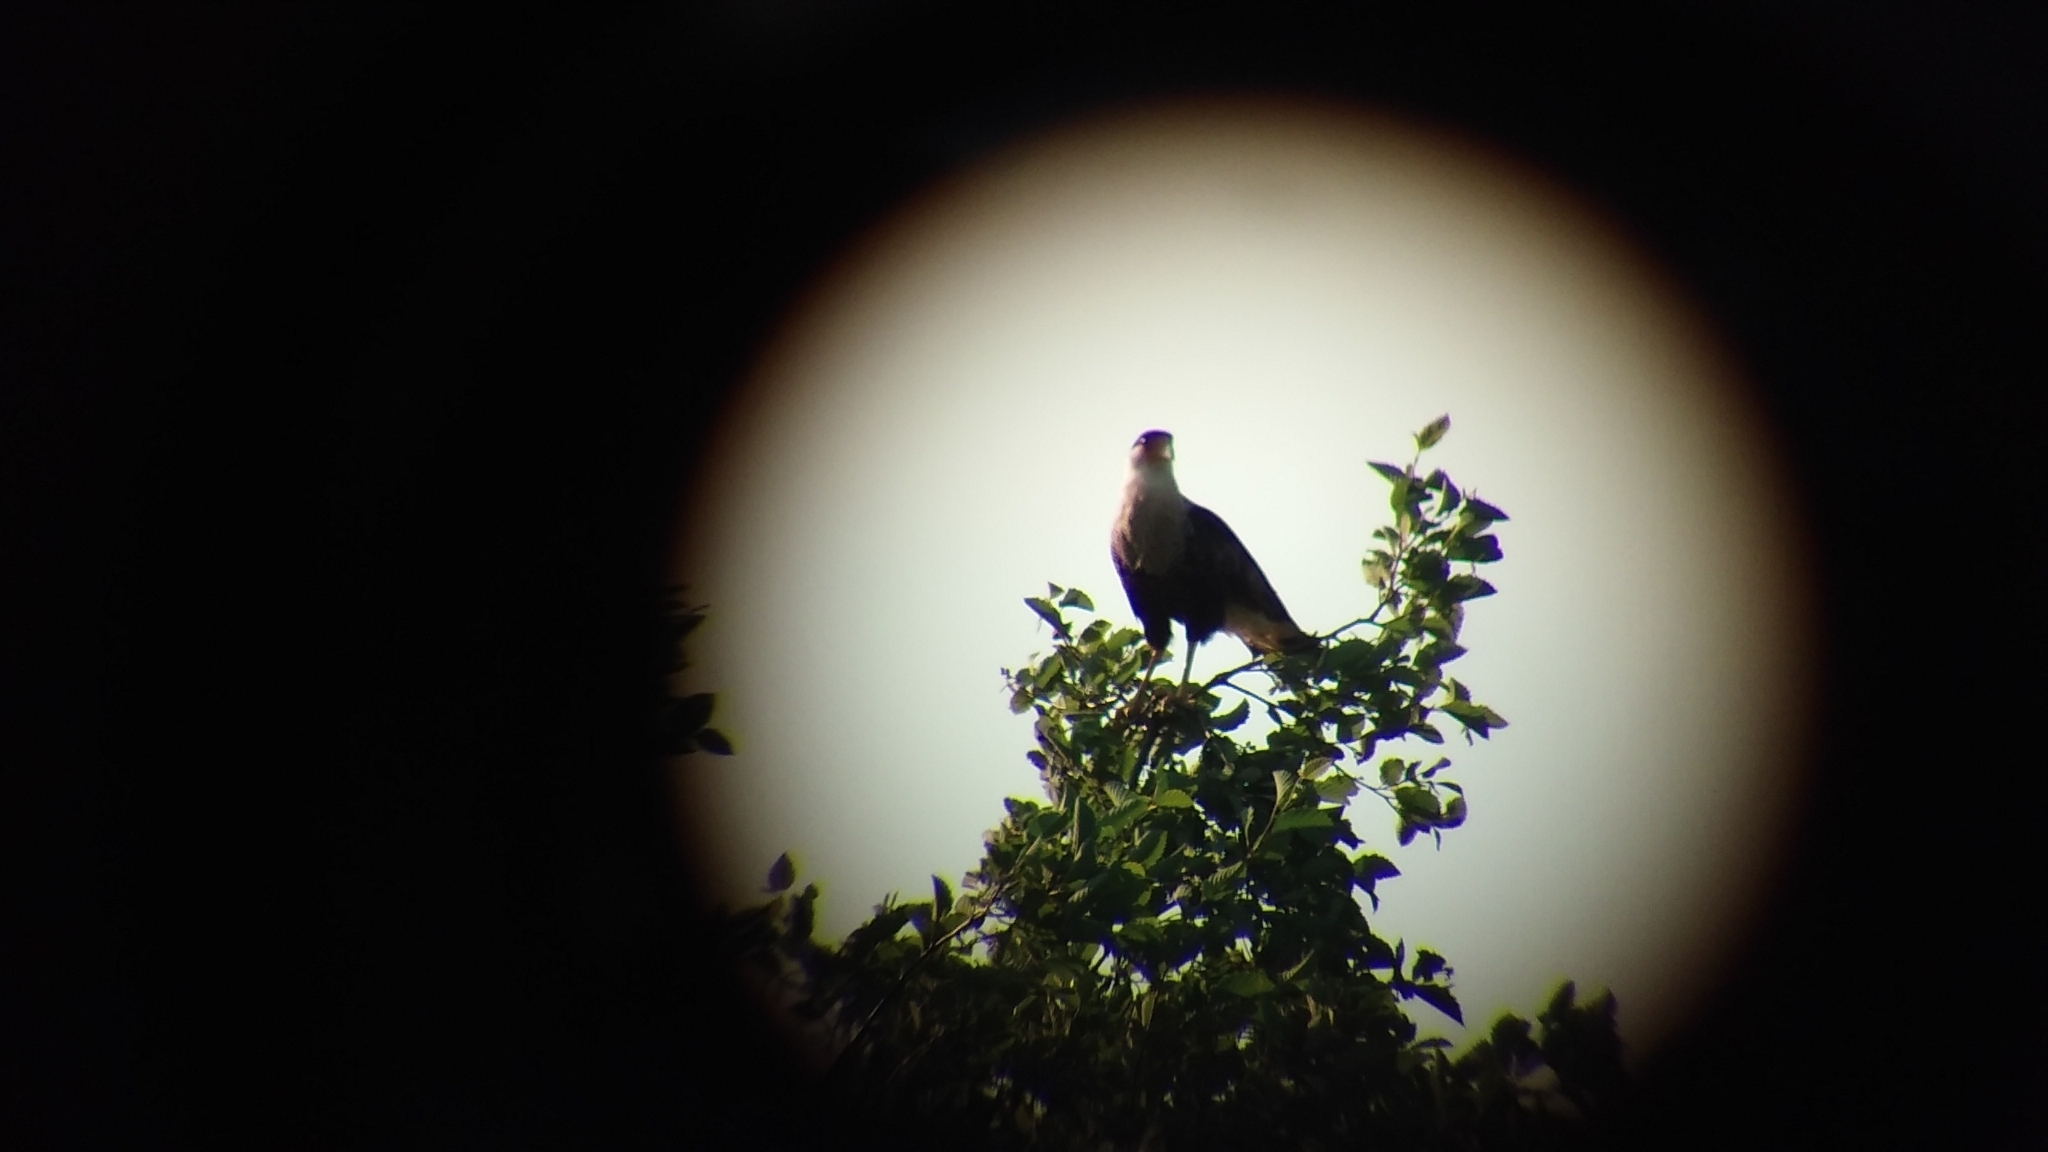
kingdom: Animalia
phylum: Chordata
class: Aves
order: Falconiformes
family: Falconidae
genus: Caracara
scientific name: Caracara plancus
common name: Southern caracara
